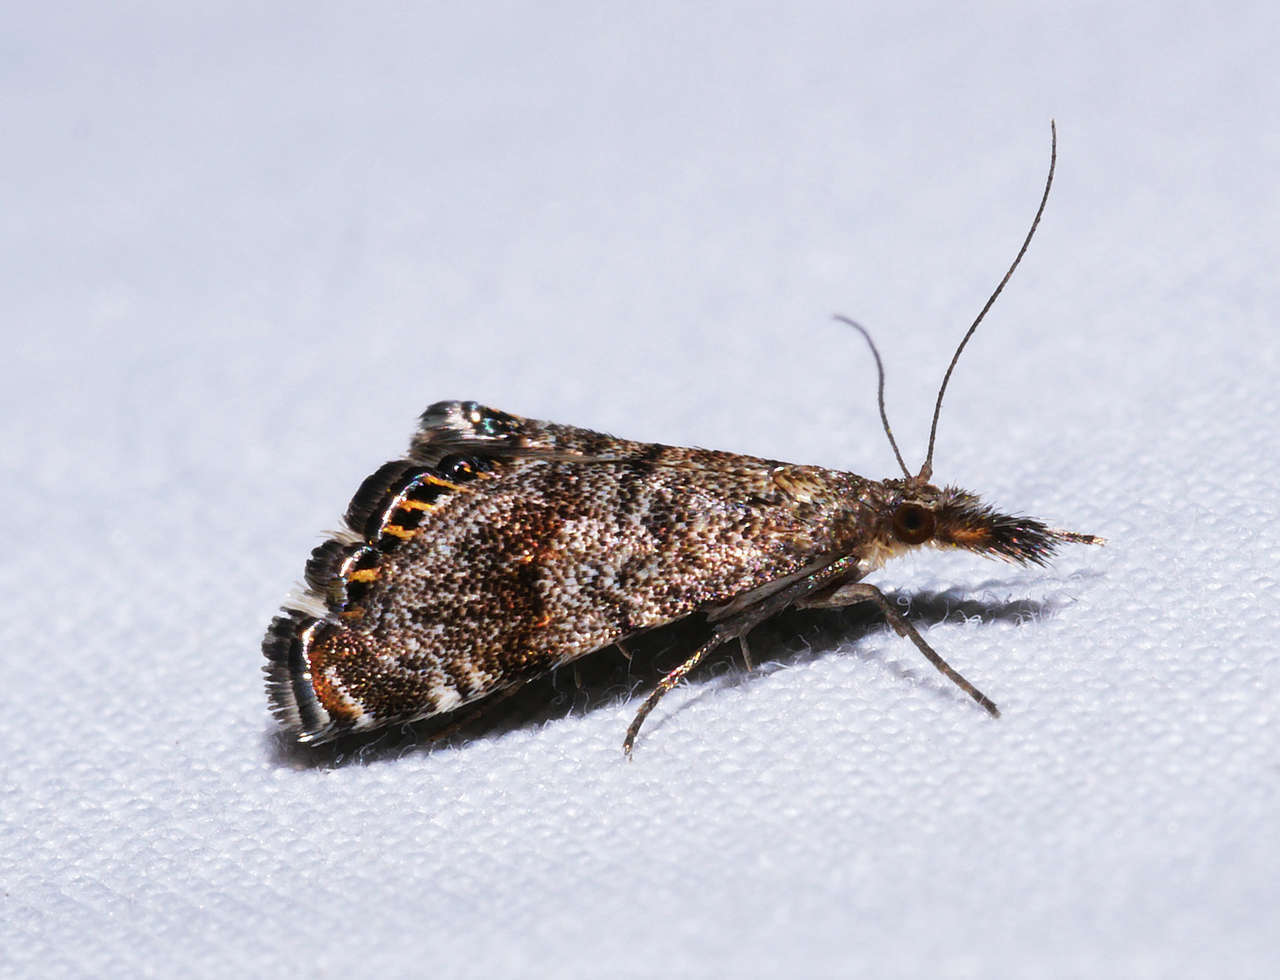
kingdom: Animalia
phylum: Arthropoda
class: Insecta
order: Lepidoptera
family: Crambidae
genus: Glaucocharis
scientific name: Glaucocharis dilatella
